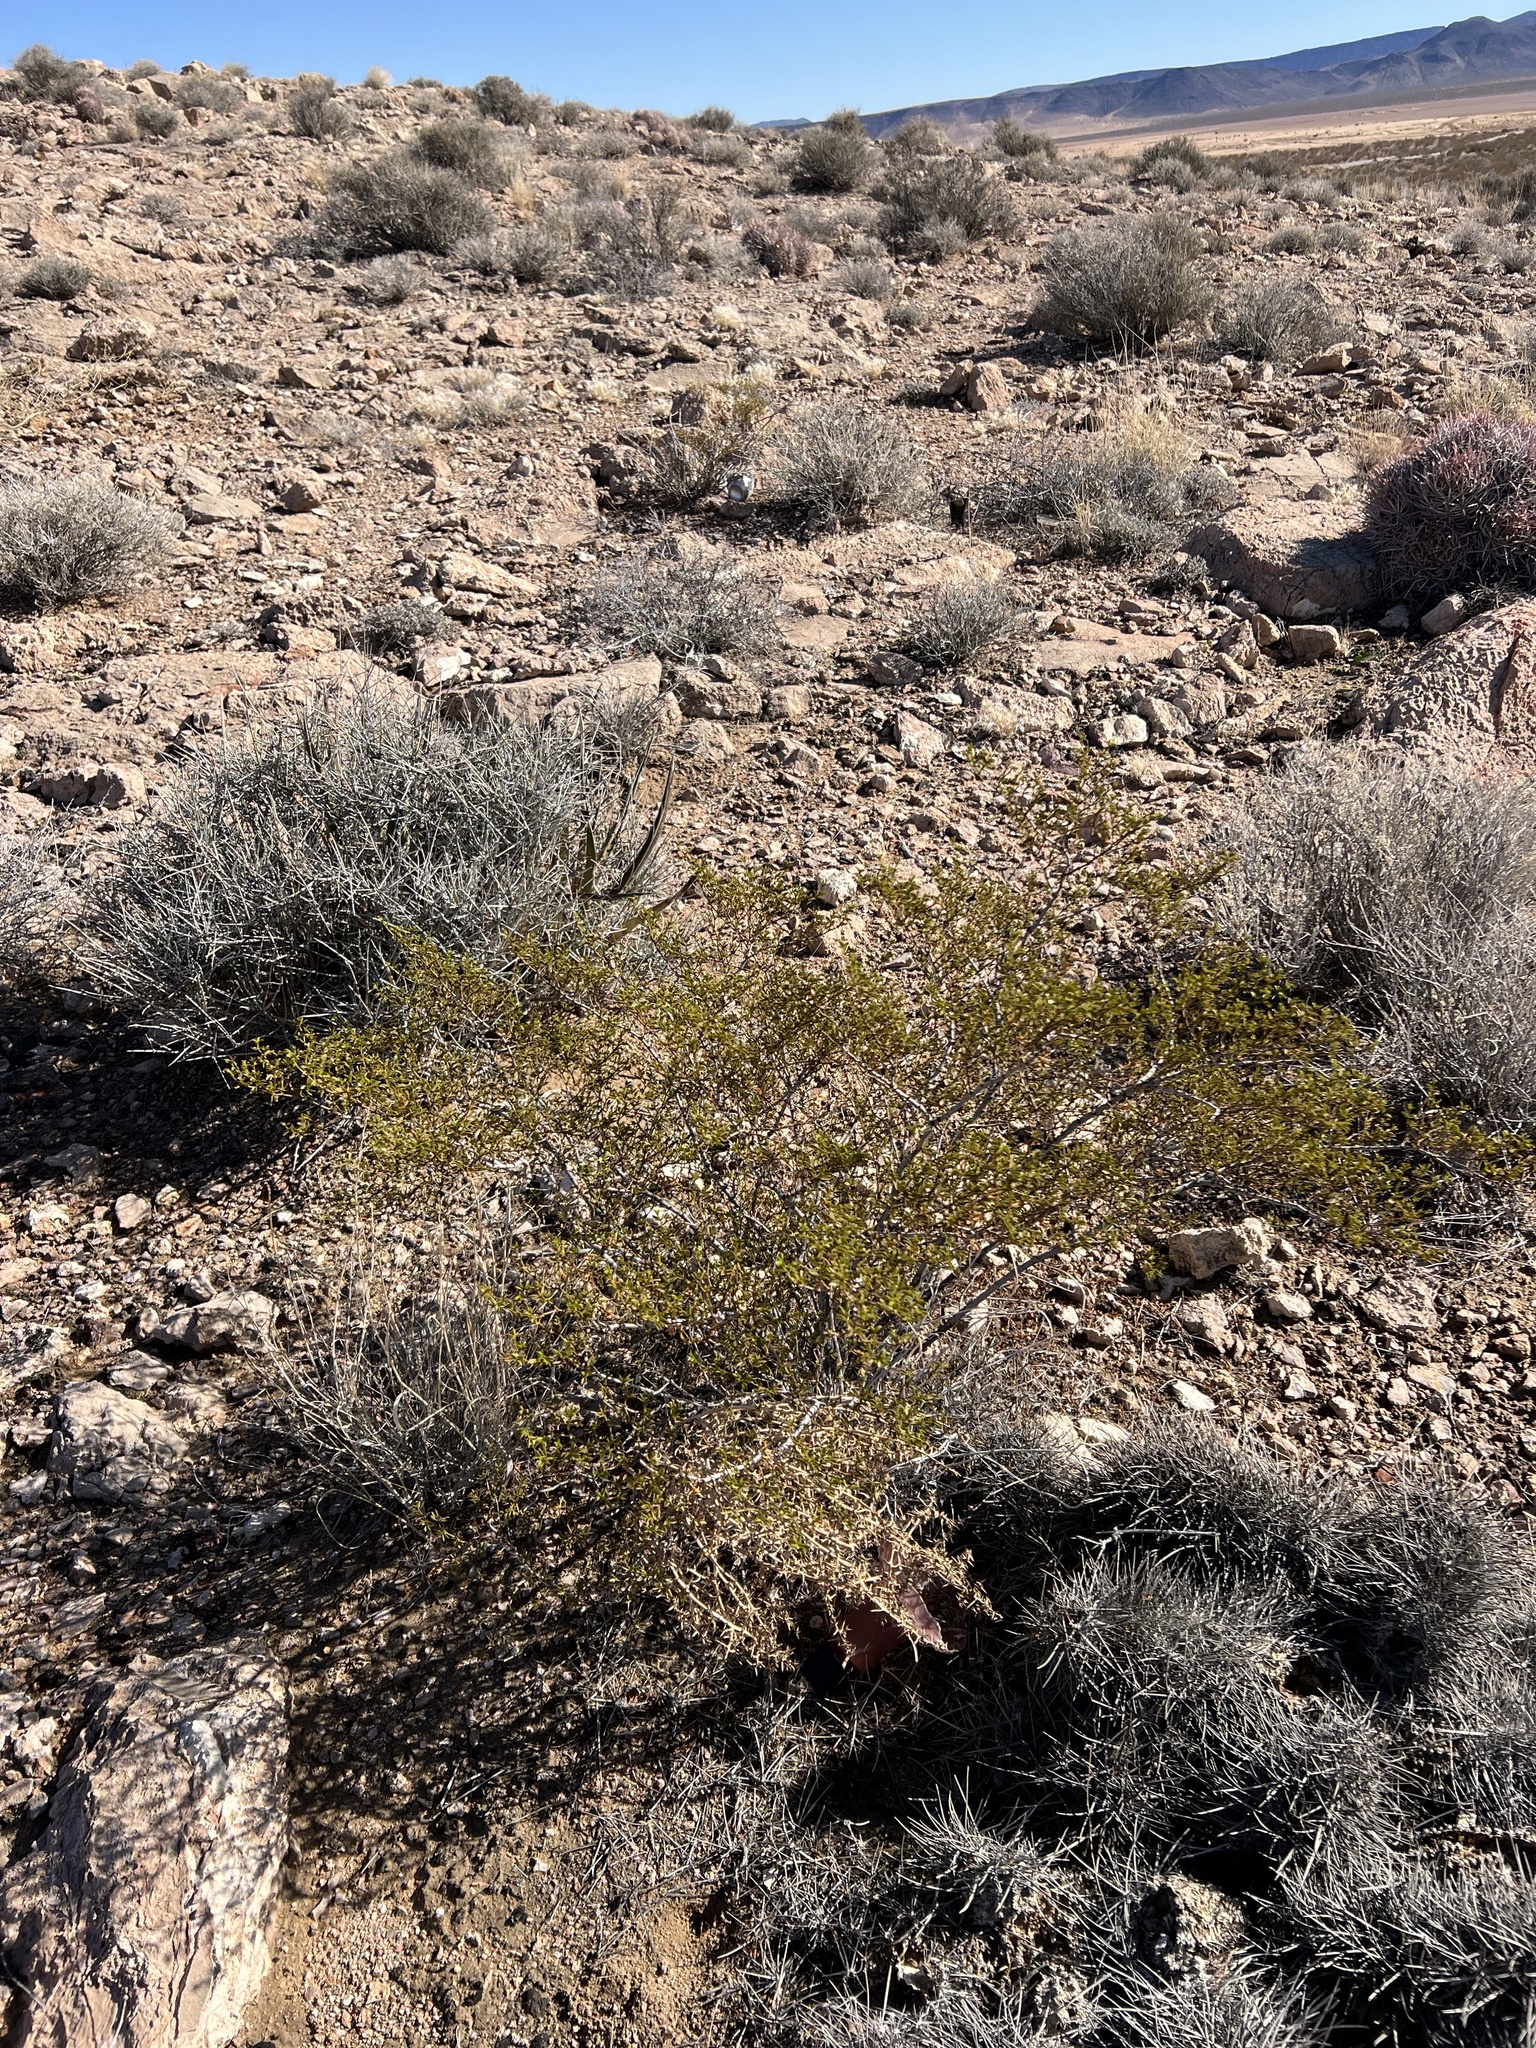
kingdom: Plantae
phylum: Tracheophyta
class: Magnoliopsida
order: Zygophyllales
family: Zygophyllaceae
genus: Larrea
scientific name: Larrea tridentata
